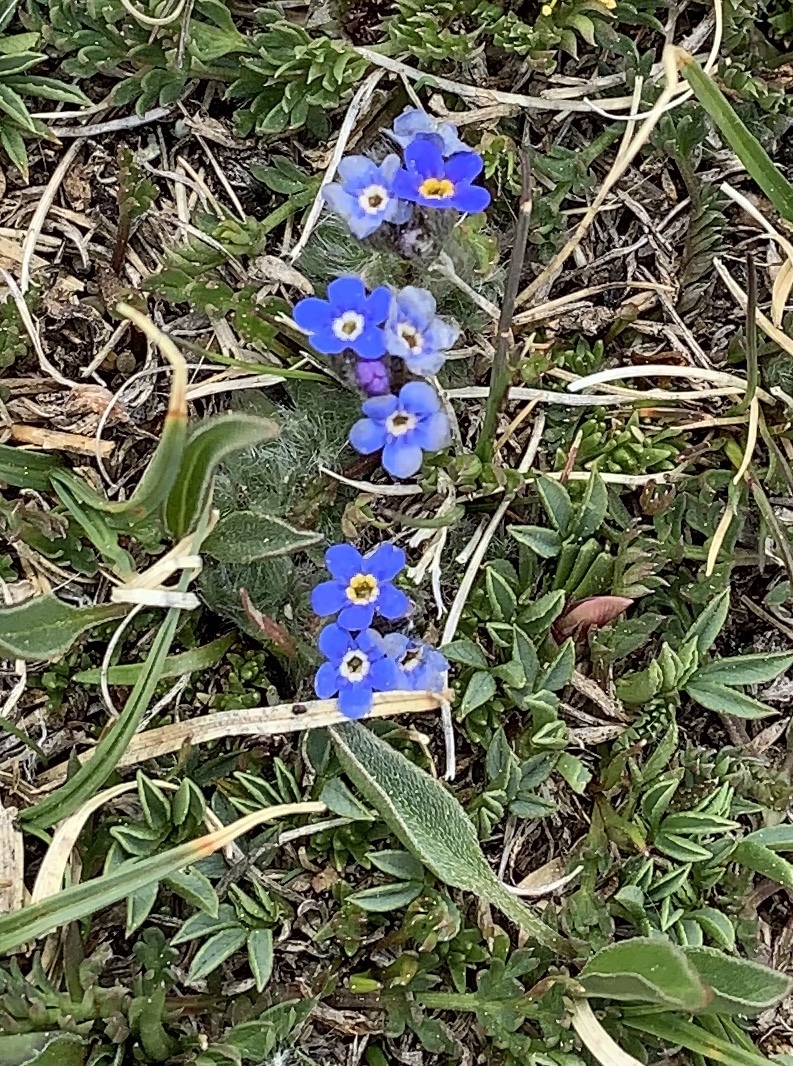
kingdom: Plantae
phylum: Tracheophyta
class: Magnoliopsida
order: Boraginales
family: Boraginaceae
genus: Eritrichium
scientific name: Eritrichium argenteum
